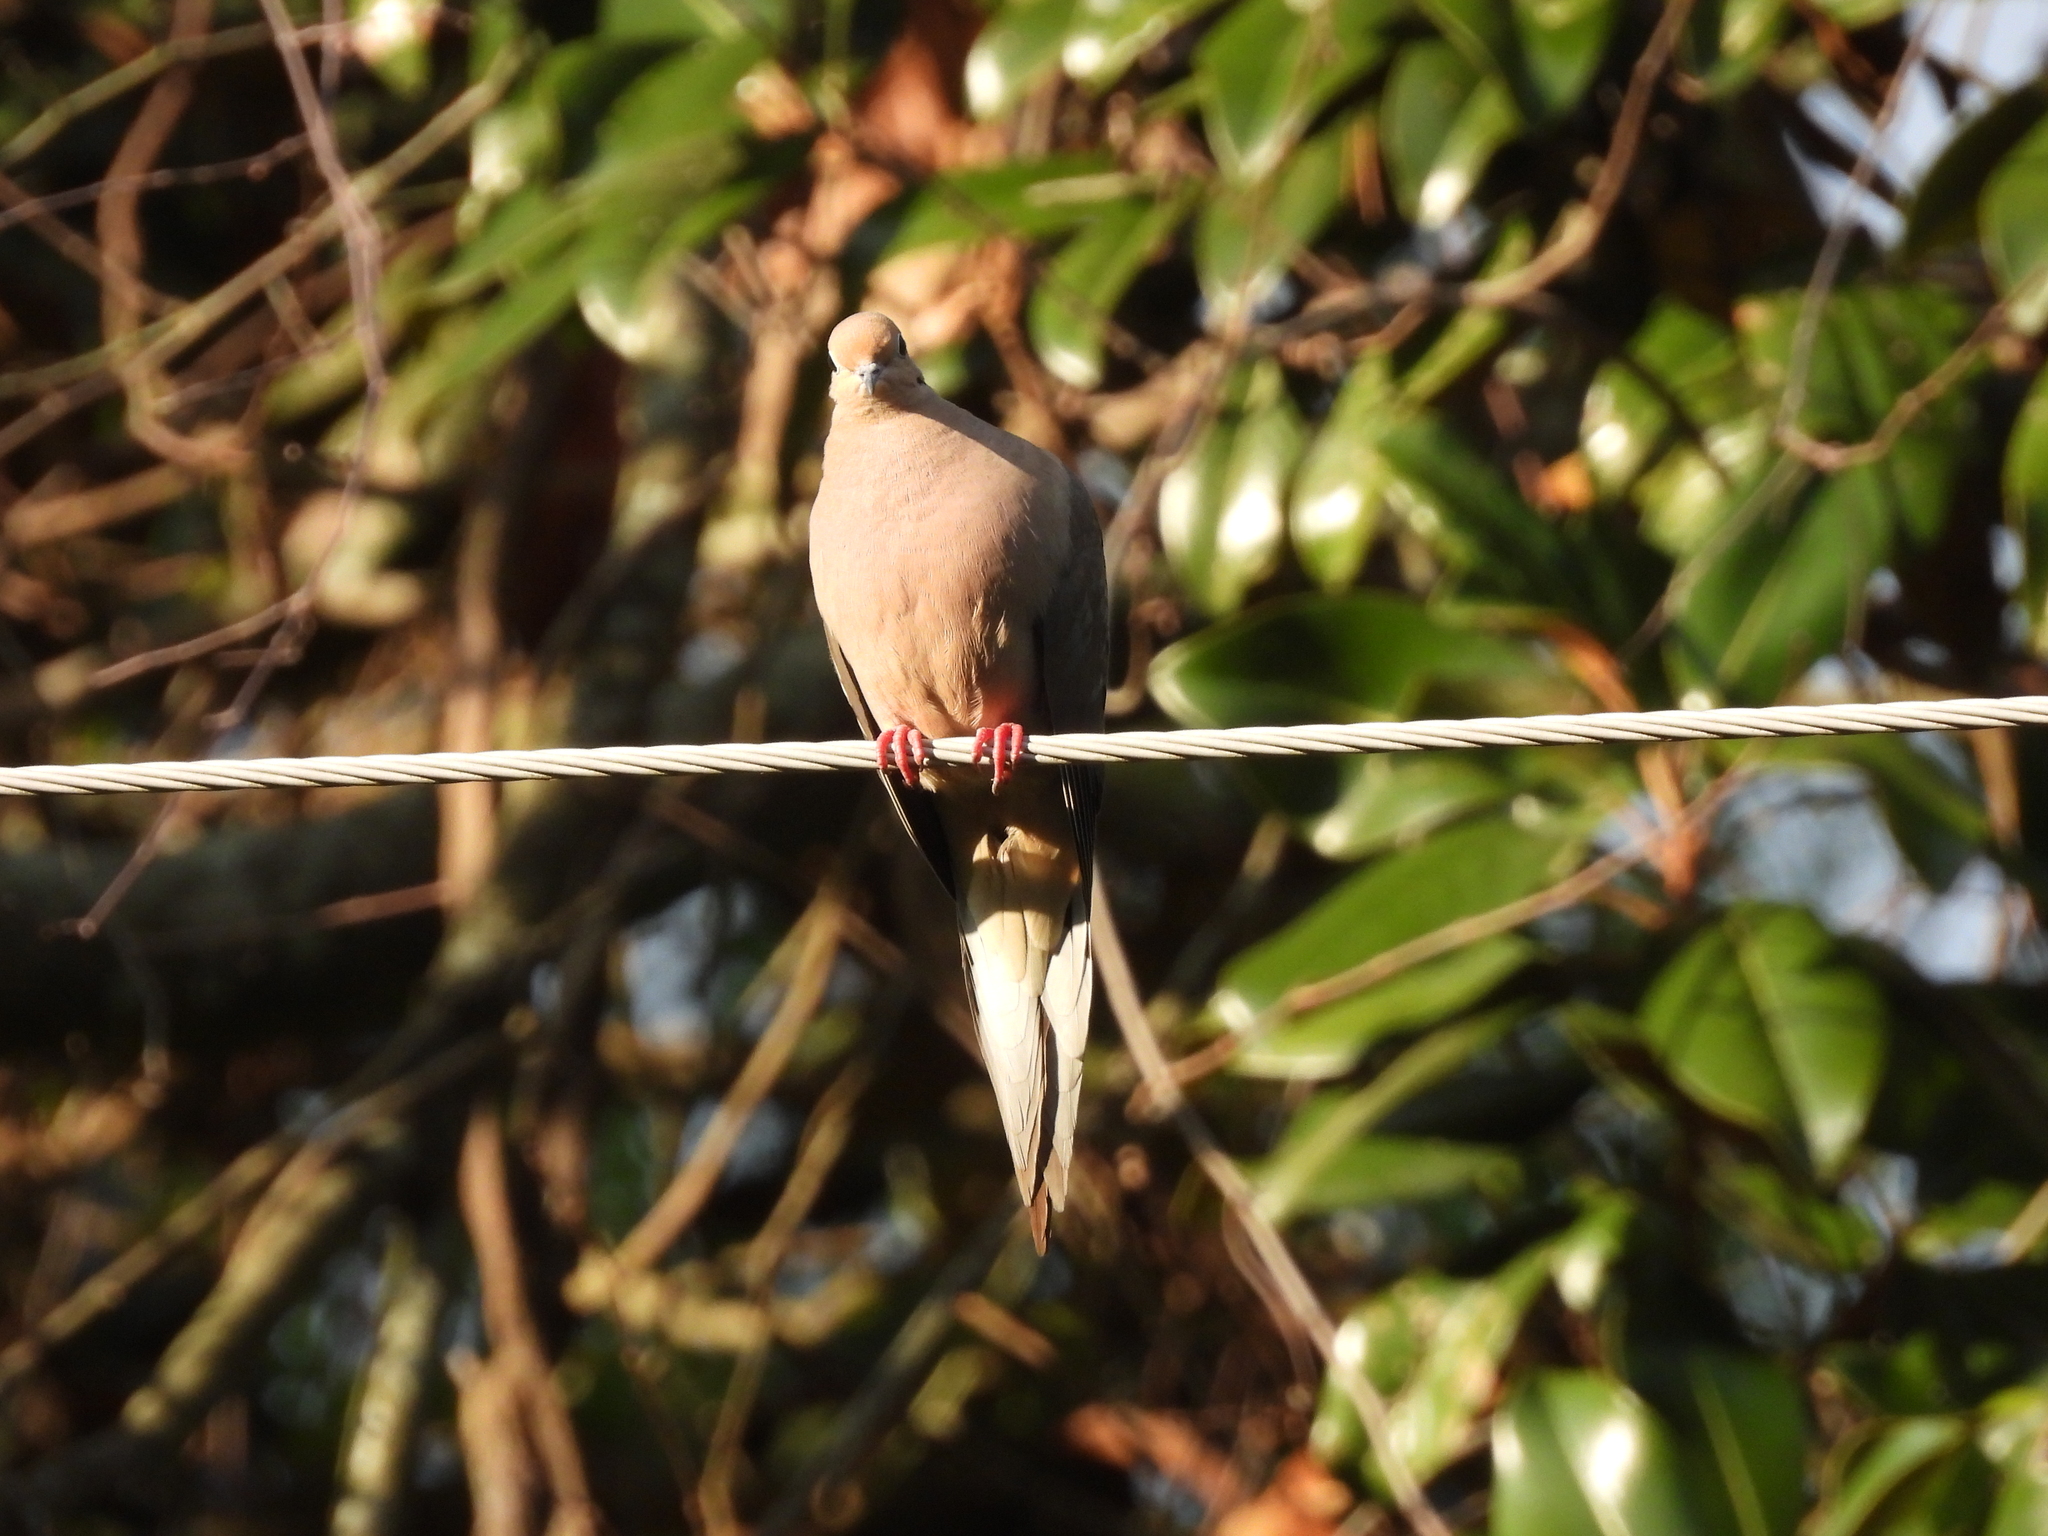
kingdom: Animalia
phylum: Chordata
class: Aves
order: Columbiformes
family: Columbidae
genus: Zenaida
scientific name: Zenaida macroura
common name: Mourning dove
